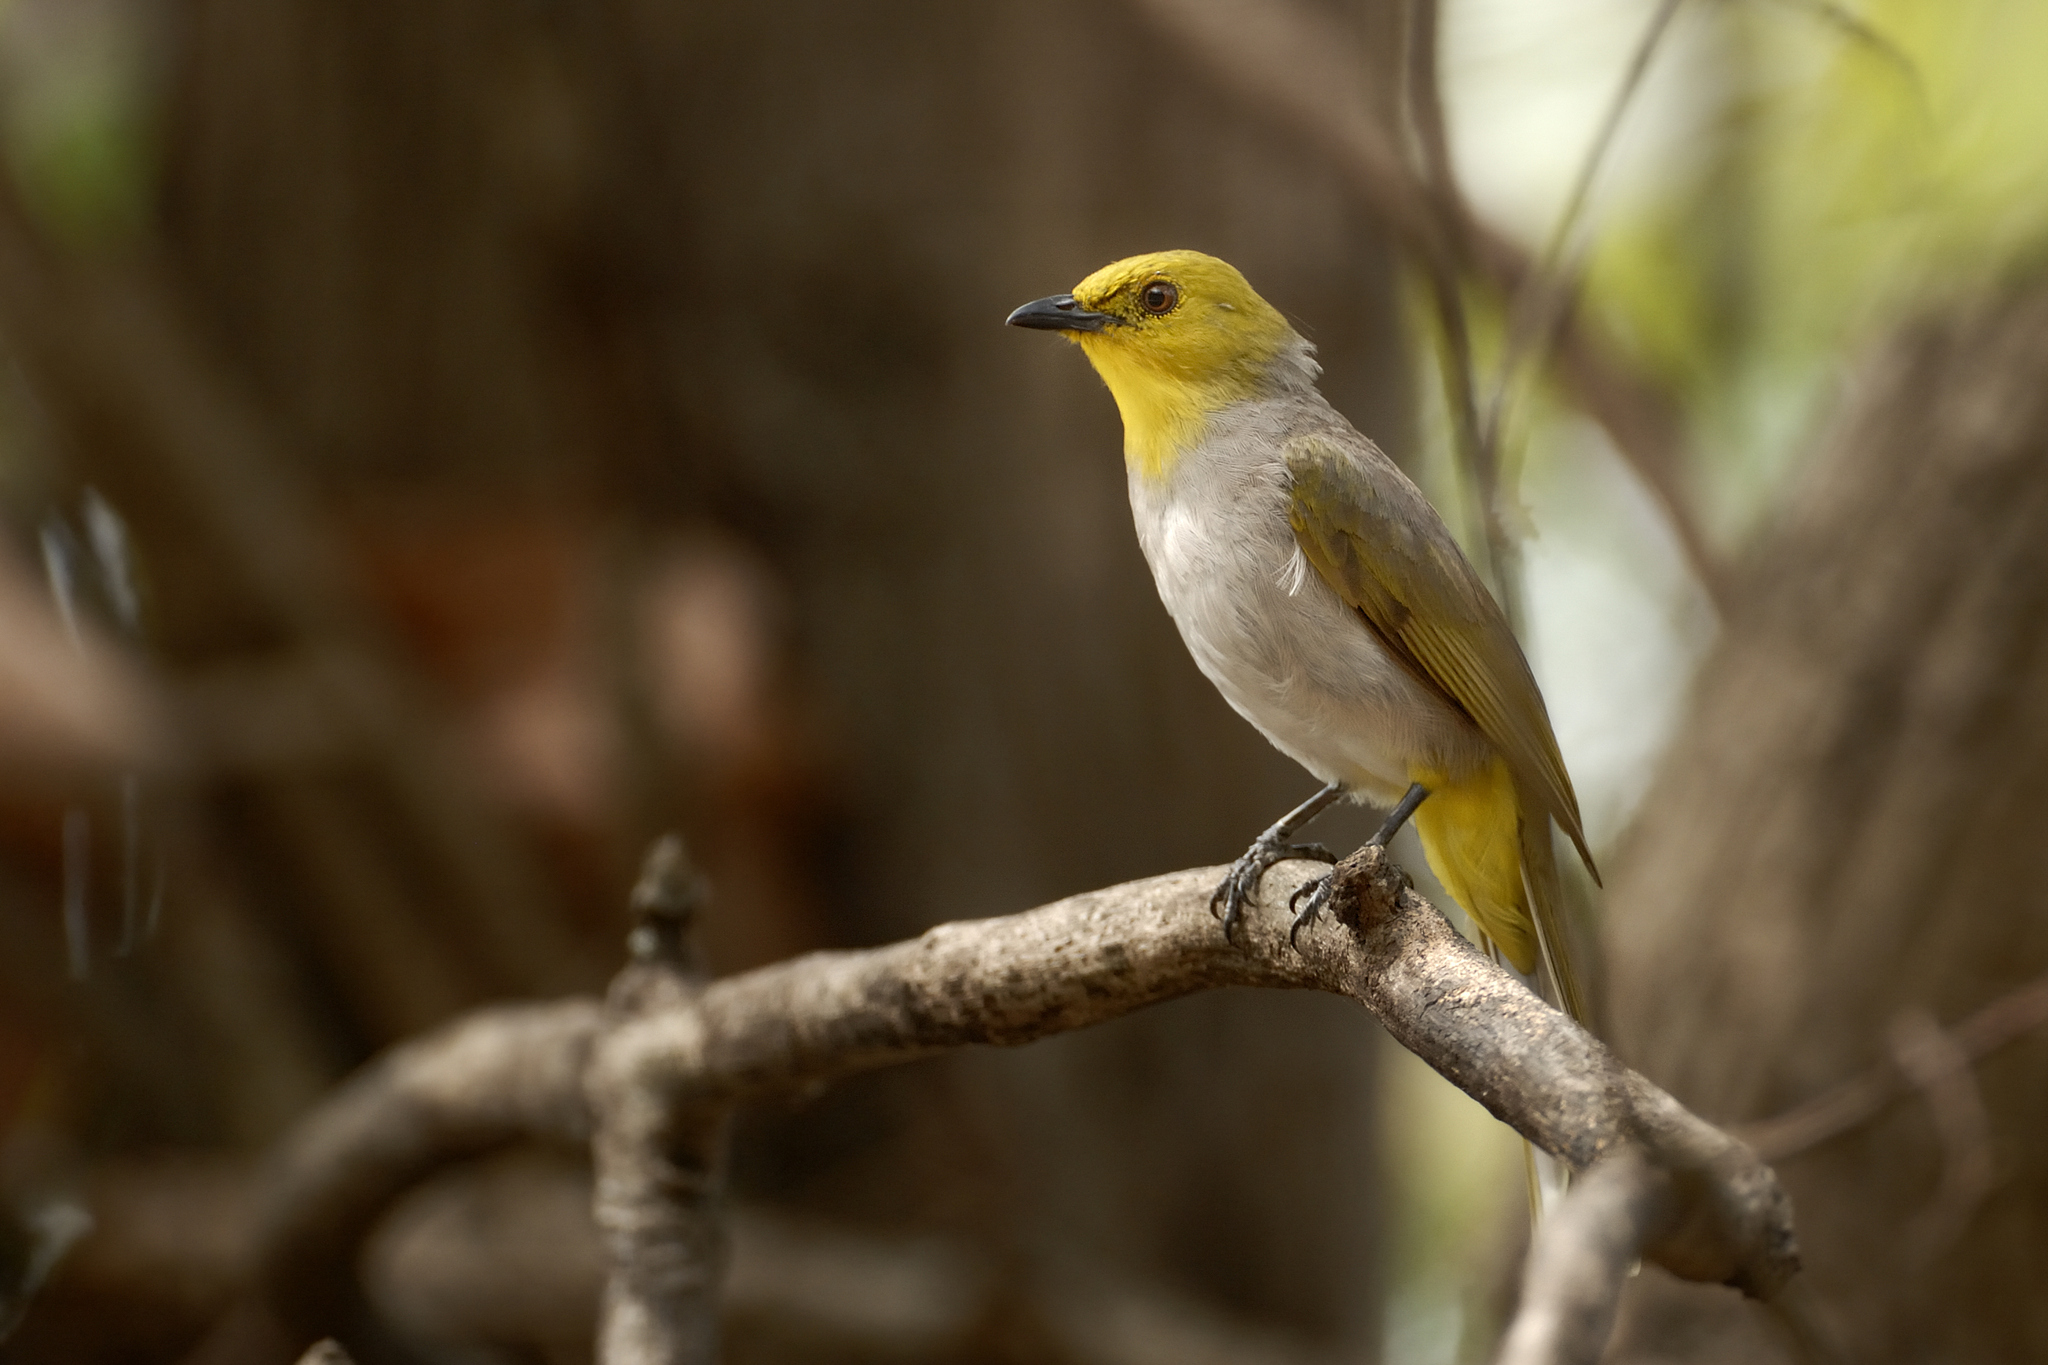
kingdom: Animalia
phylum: Chordata
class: Aves
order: Passeriformes
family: Pycnonotidae
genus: Pycnonotus
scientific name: Pycnonotus xantholaemus
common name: Yellow-throated bulbul
